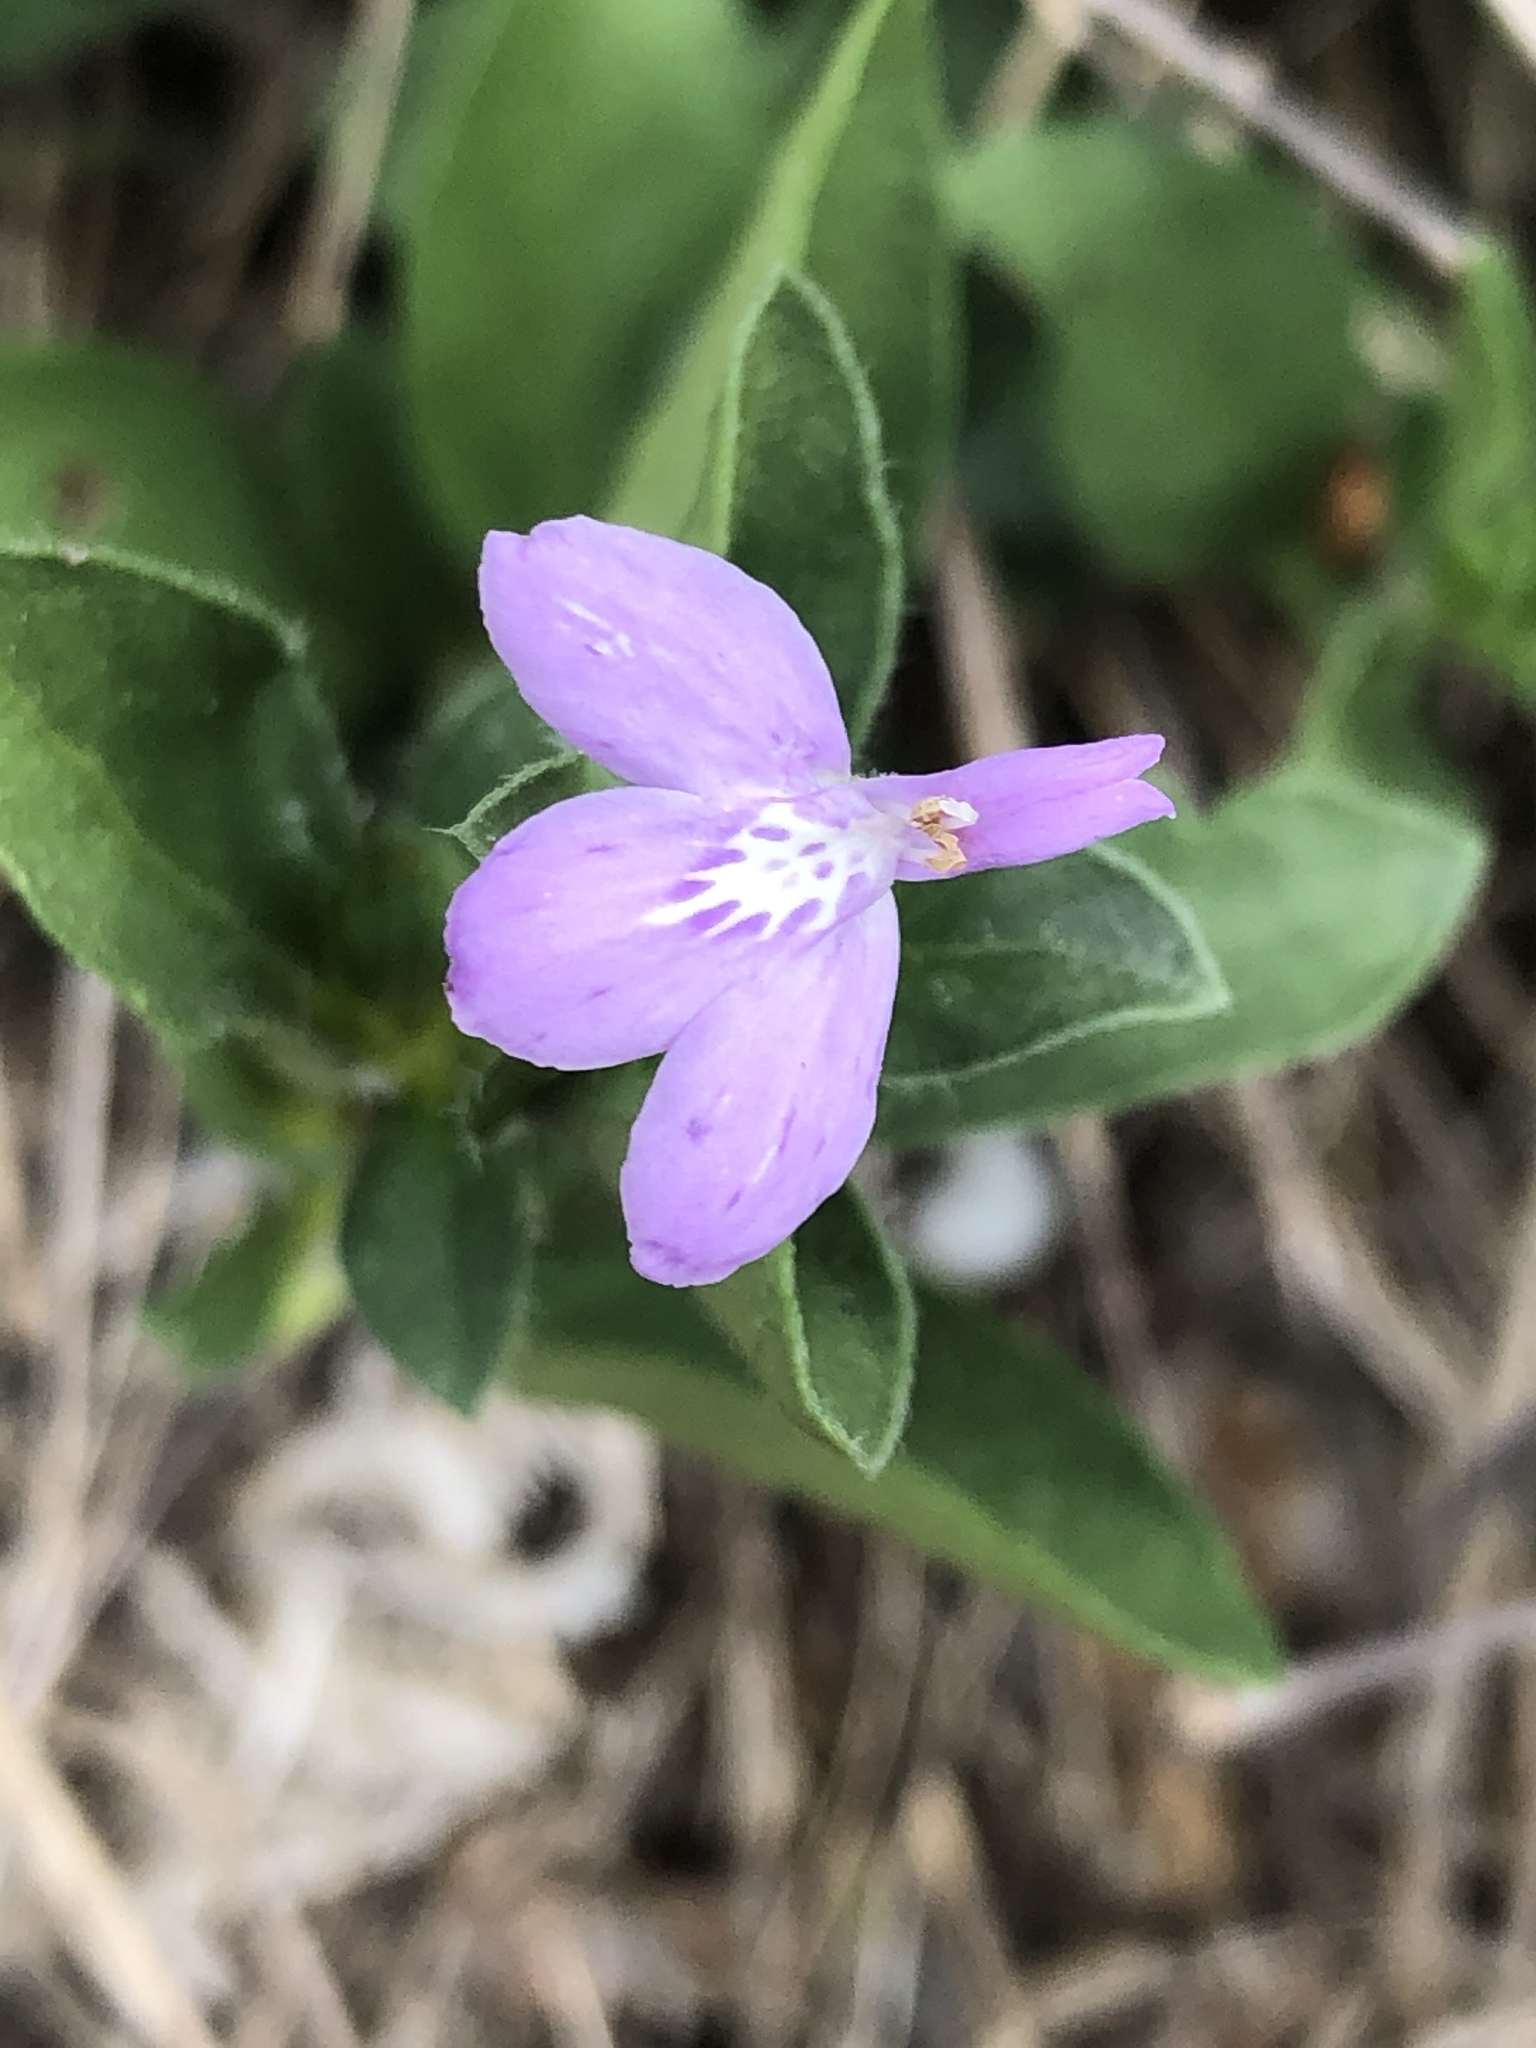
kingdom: Plantae
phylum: Tracheophyta
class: Magnoliopsida
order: Lamiales
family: Acanthaceae
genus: Justicia
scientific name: Justicia pilosella
